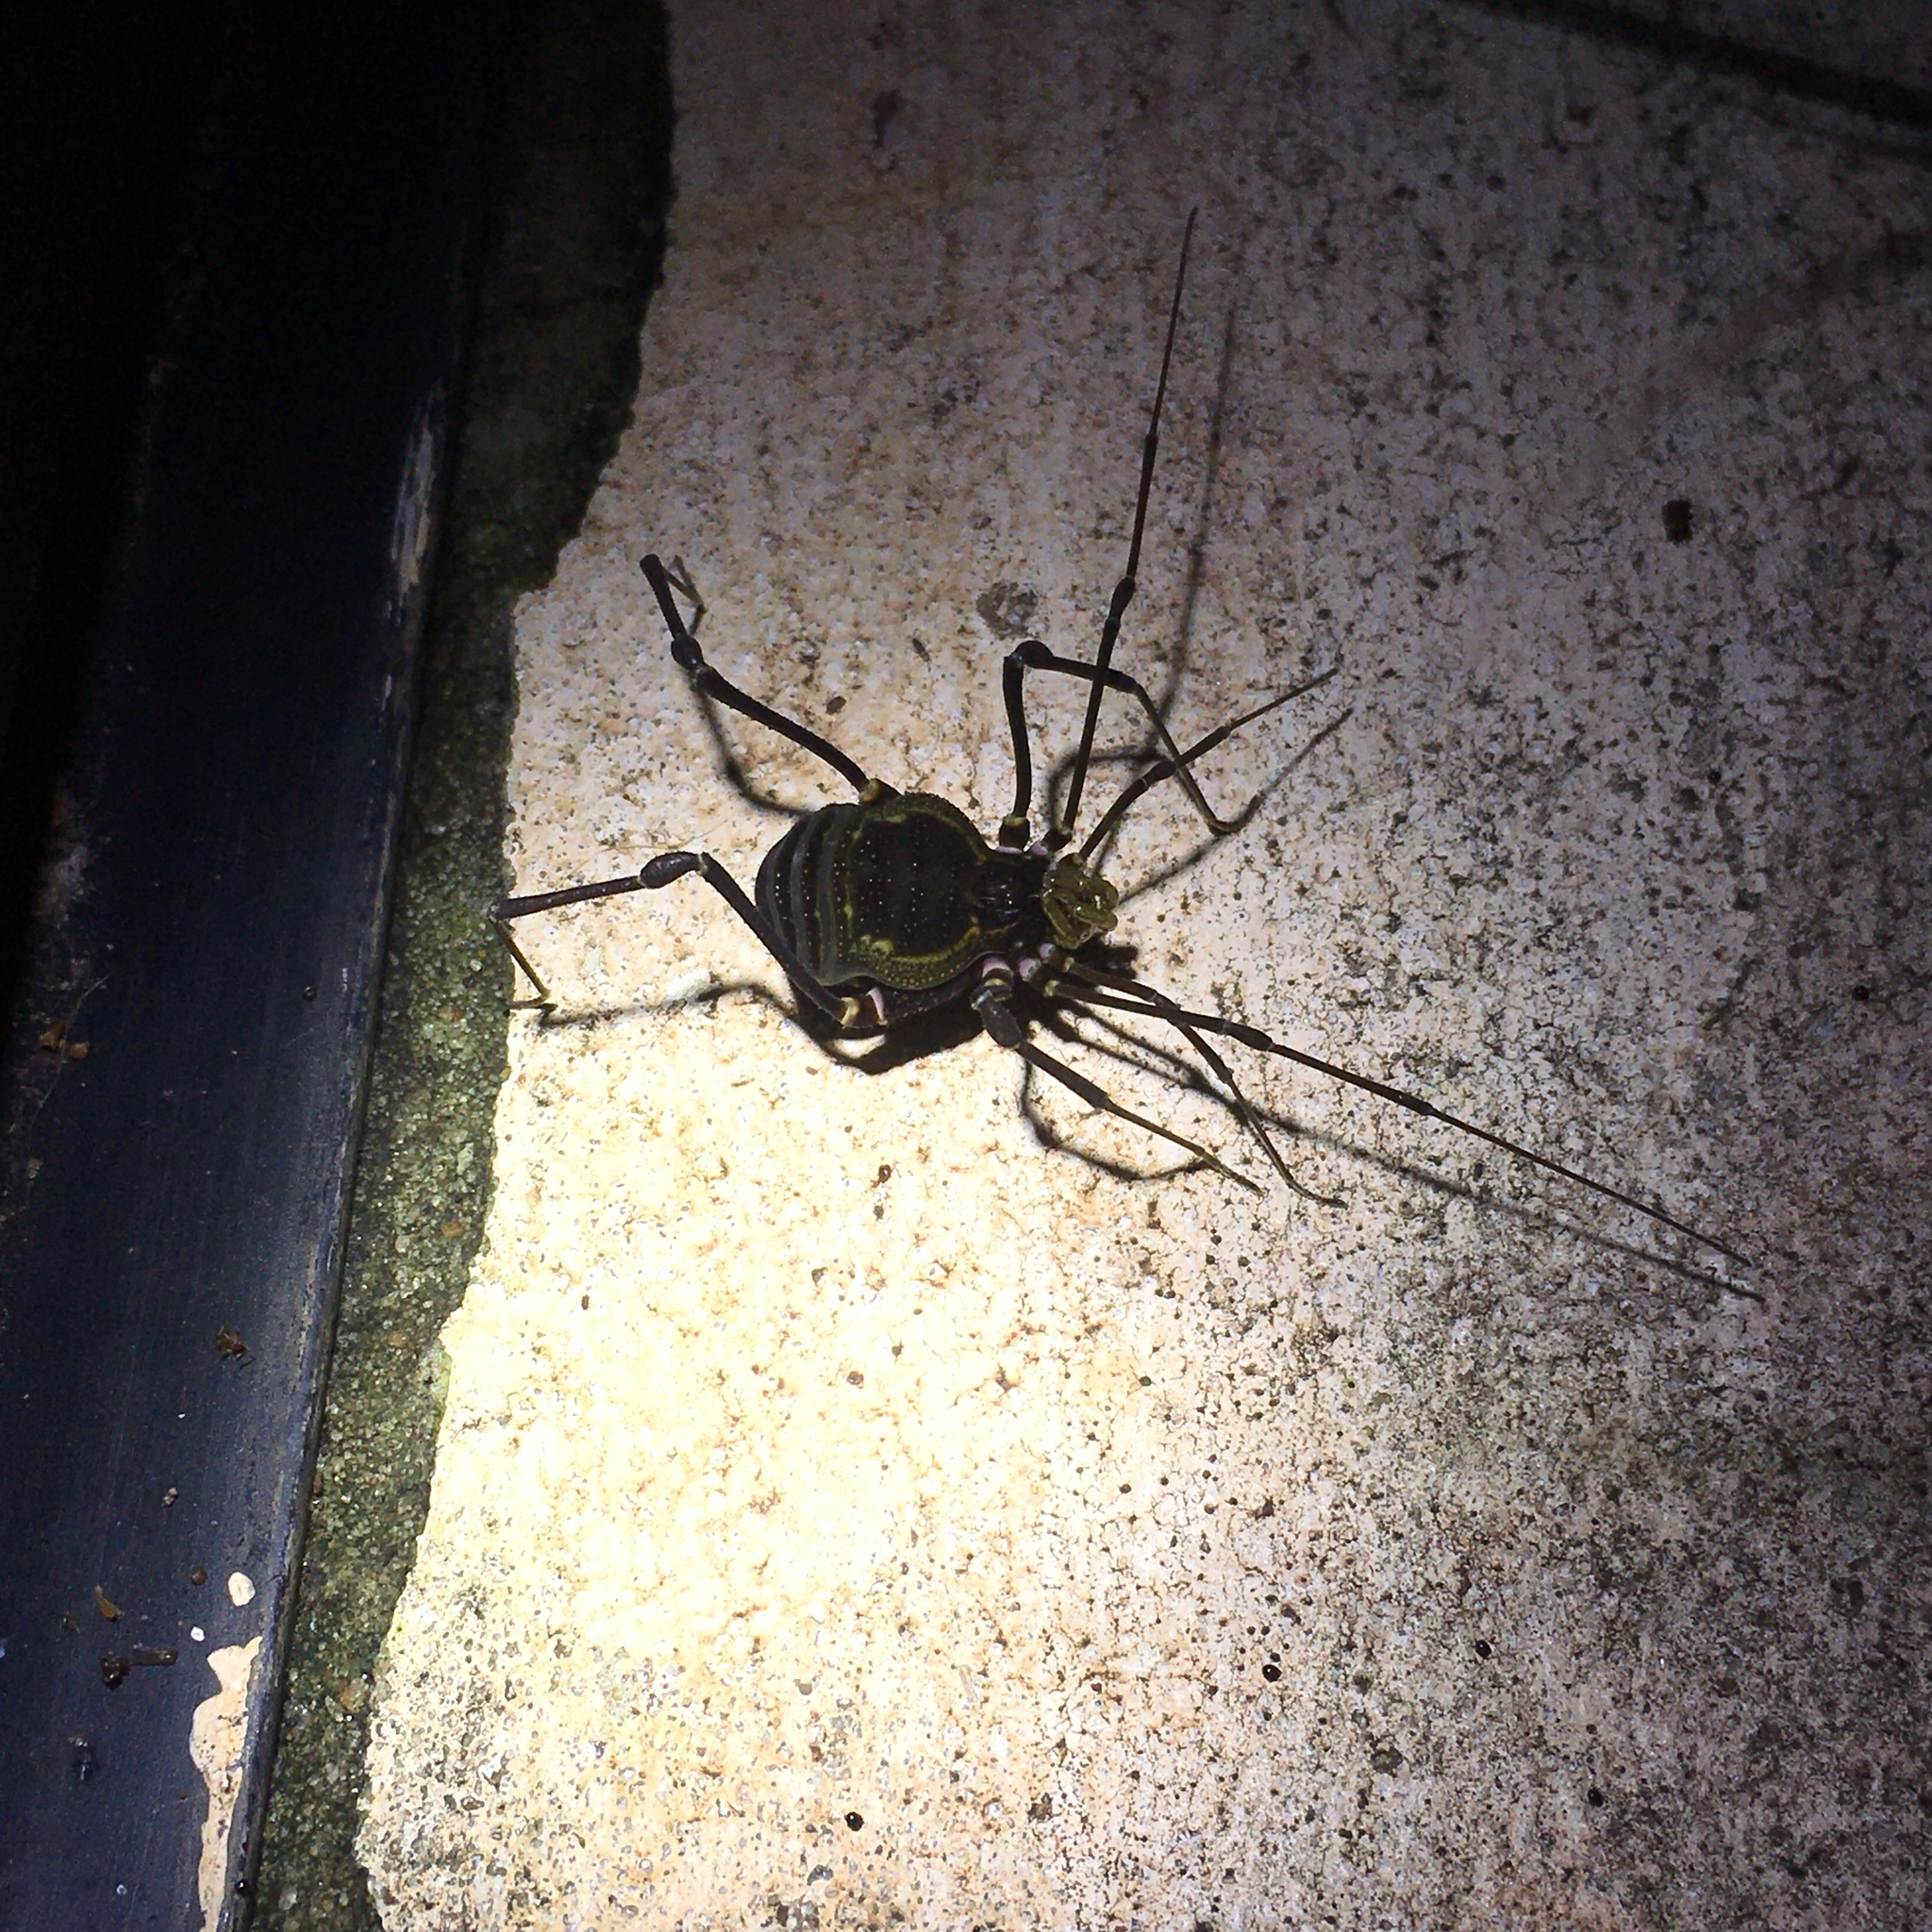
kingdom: Animalia
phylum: Arthropoda
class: Arachnida
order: Opiliones
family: Gonyleptidae
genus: Geraeocormobius
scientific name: Geraeocormobius sylvarum
